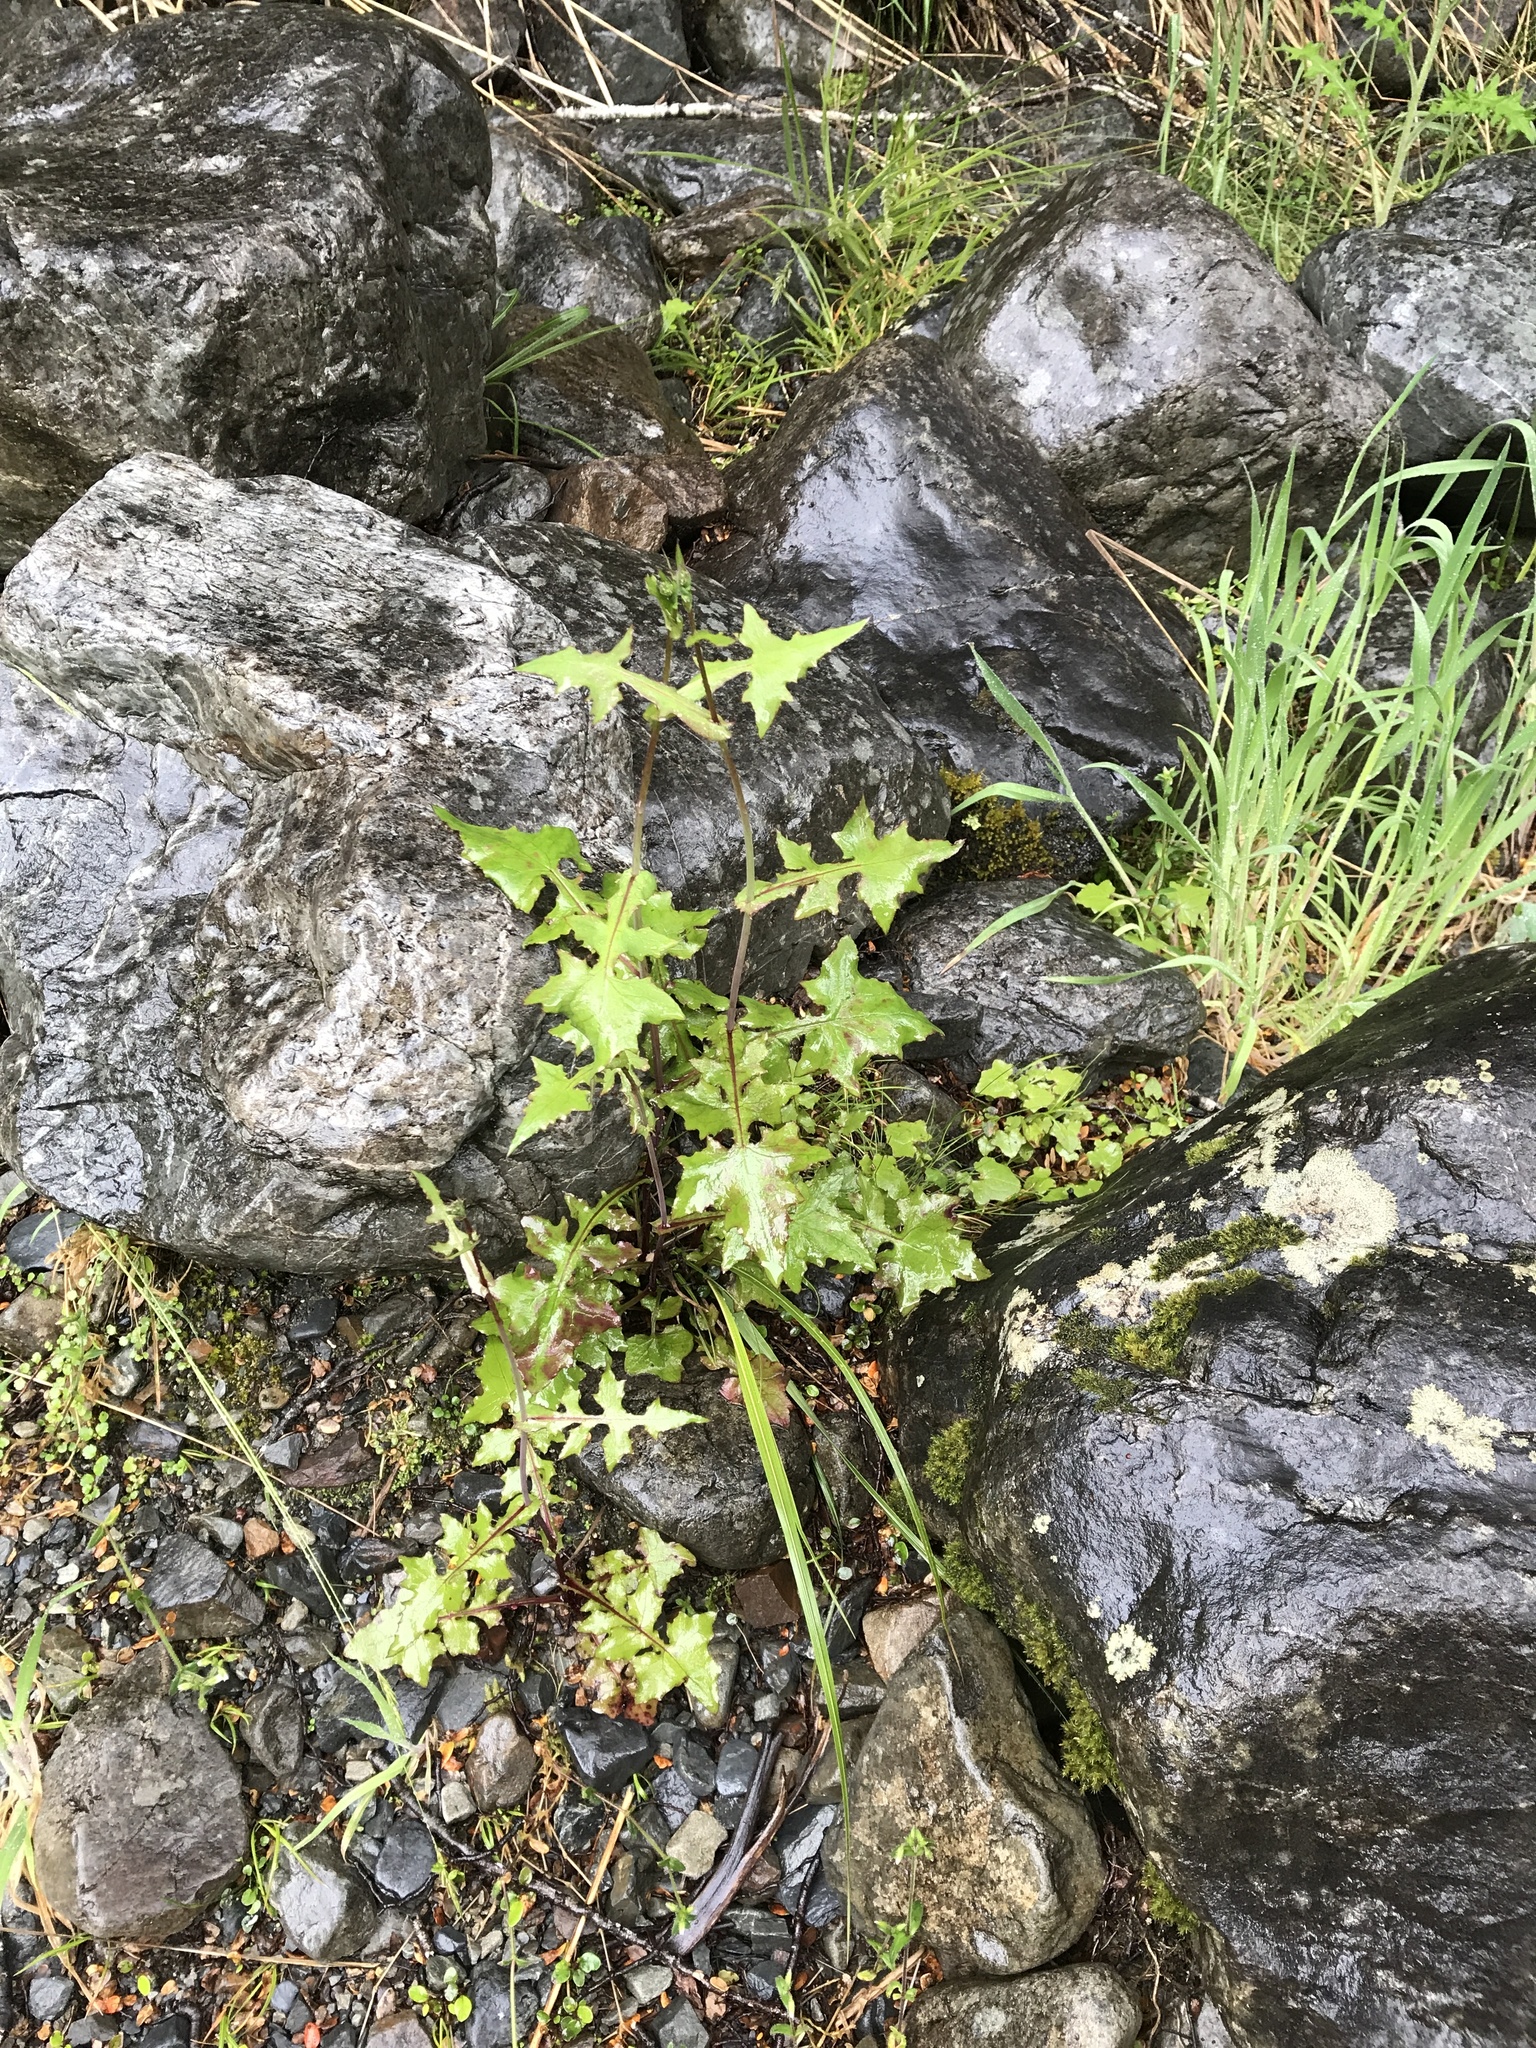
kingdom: Plantae
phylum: Tracheophyta
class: Magnoliopsida
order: Asterales
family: Asteraceae
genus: Mycelis
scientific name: Mycelis muralis
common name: Wall lettuce
